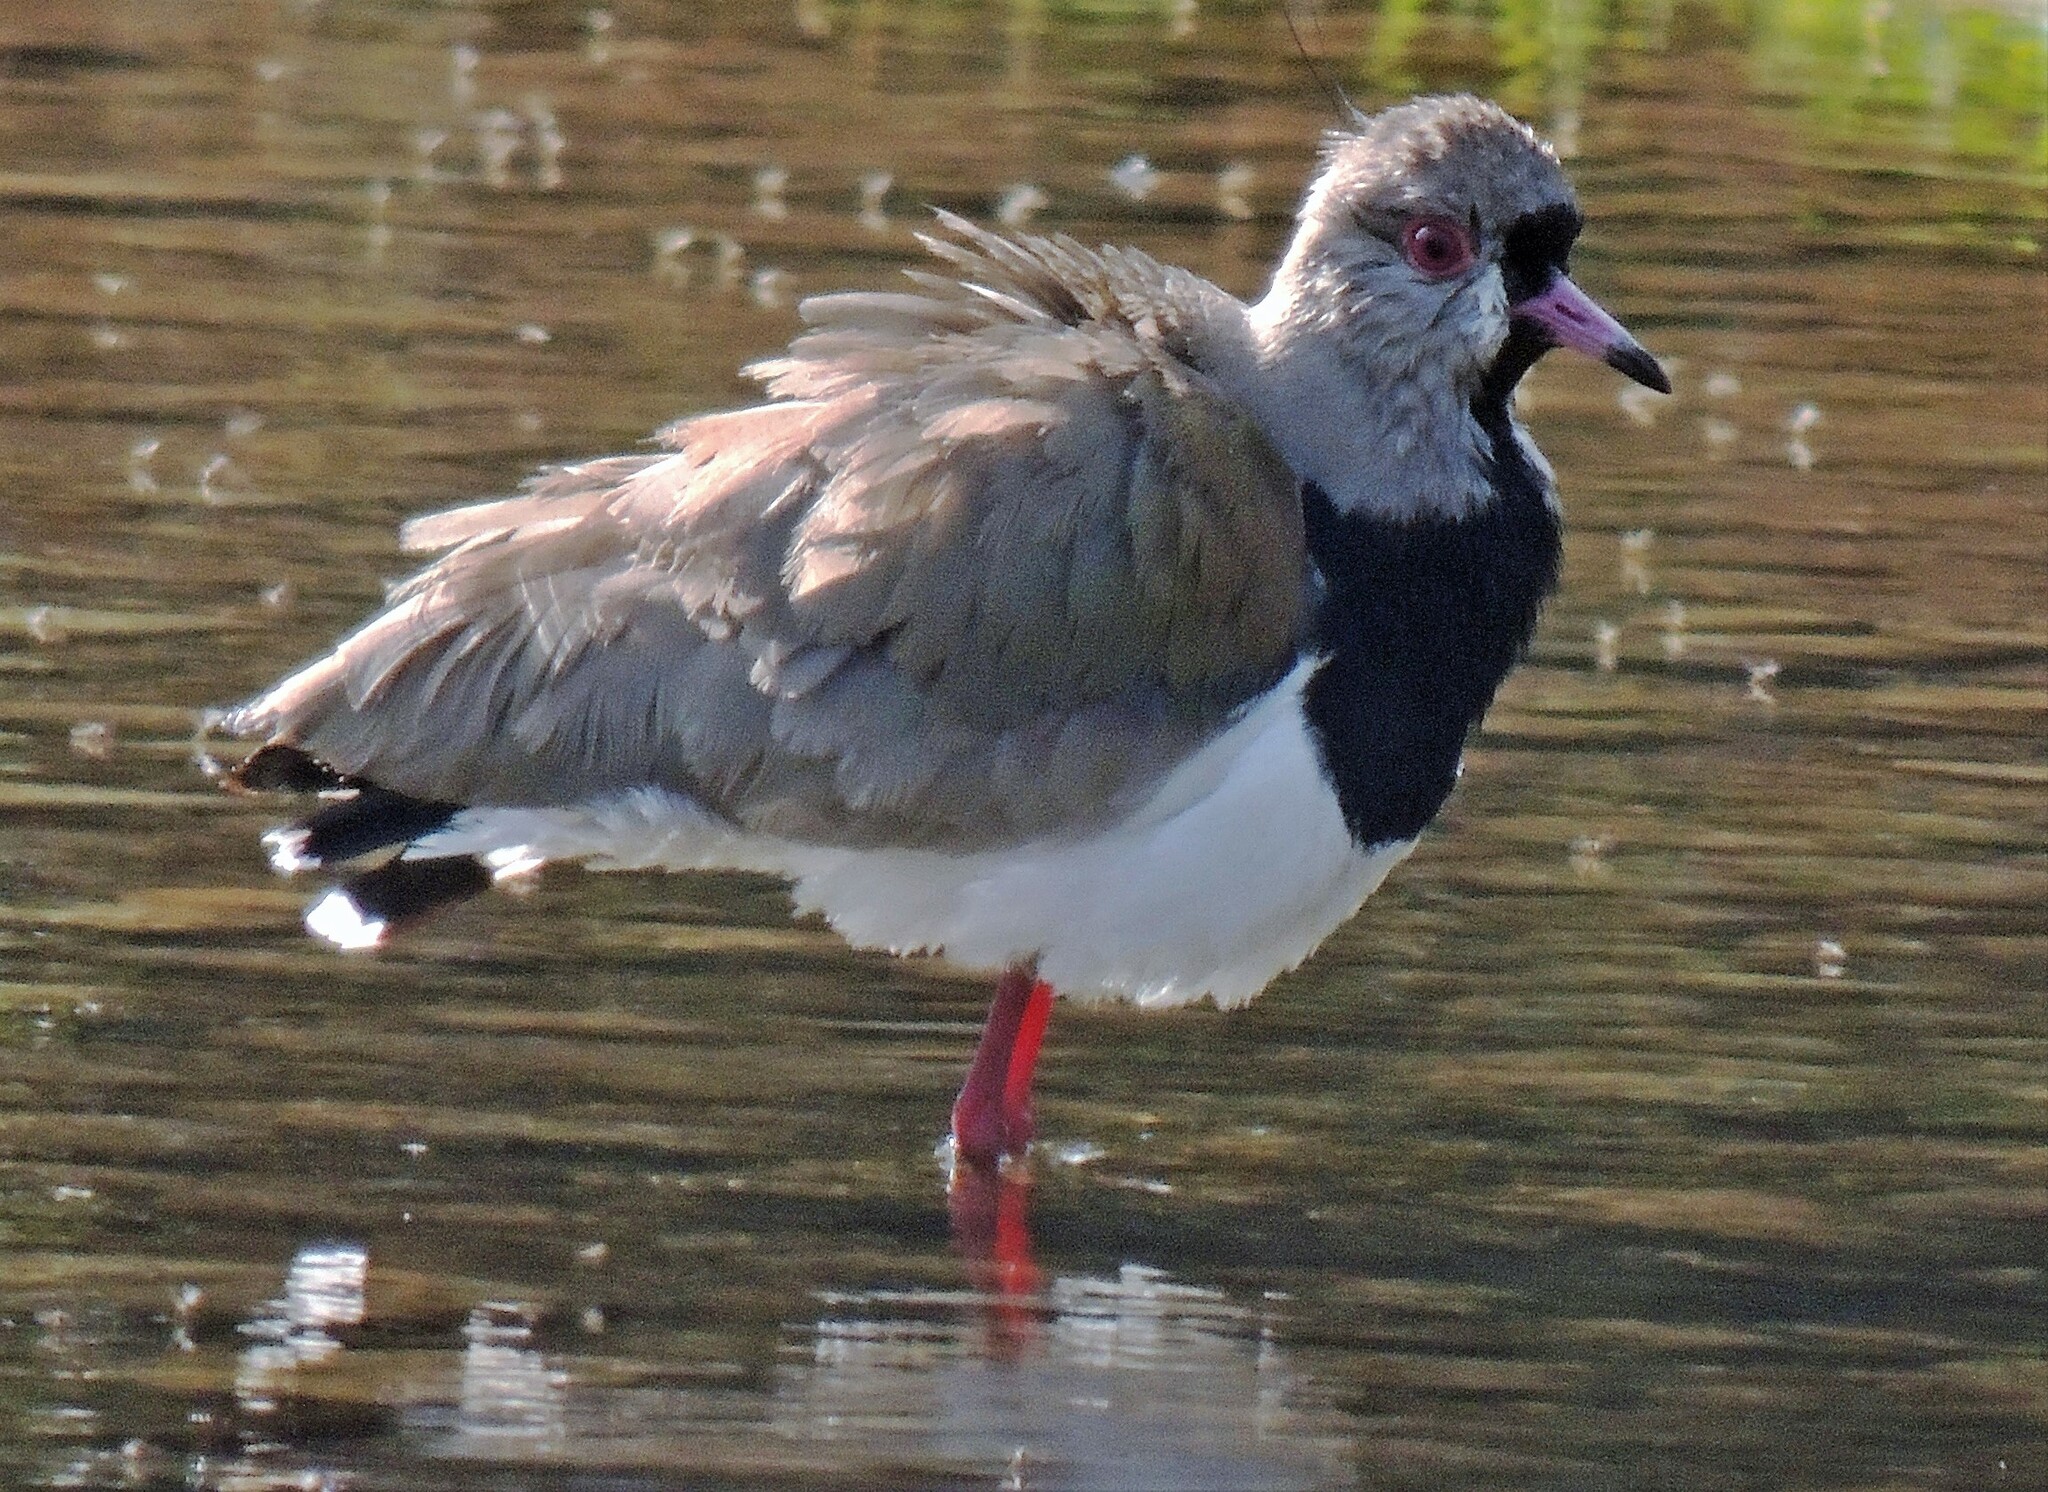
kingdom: Animalia
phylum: Chordata
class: Aves
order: Charadriiformes
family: Charadriidae
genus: Vanellus
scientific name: Vanellus chilensis
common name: Southern lapwing
